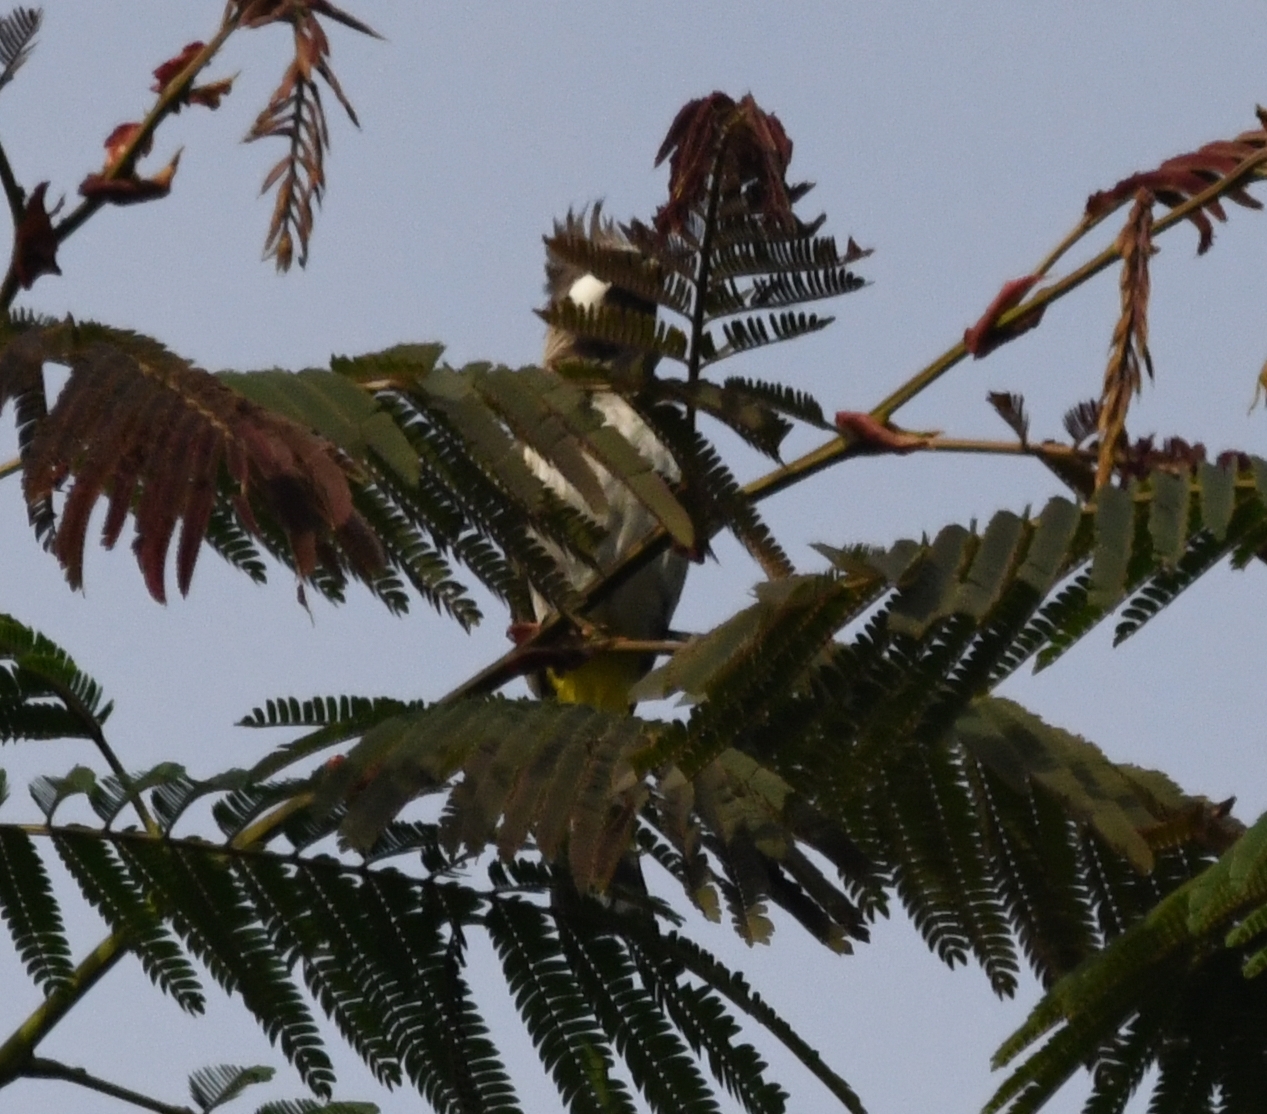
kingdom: Animalia
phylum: Chordata
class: Aves
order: Passeriformes
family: Pycnonotidae
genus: Pycnonotus
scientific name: Pycnonotus leucogenys
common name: Himalayan bulbul
